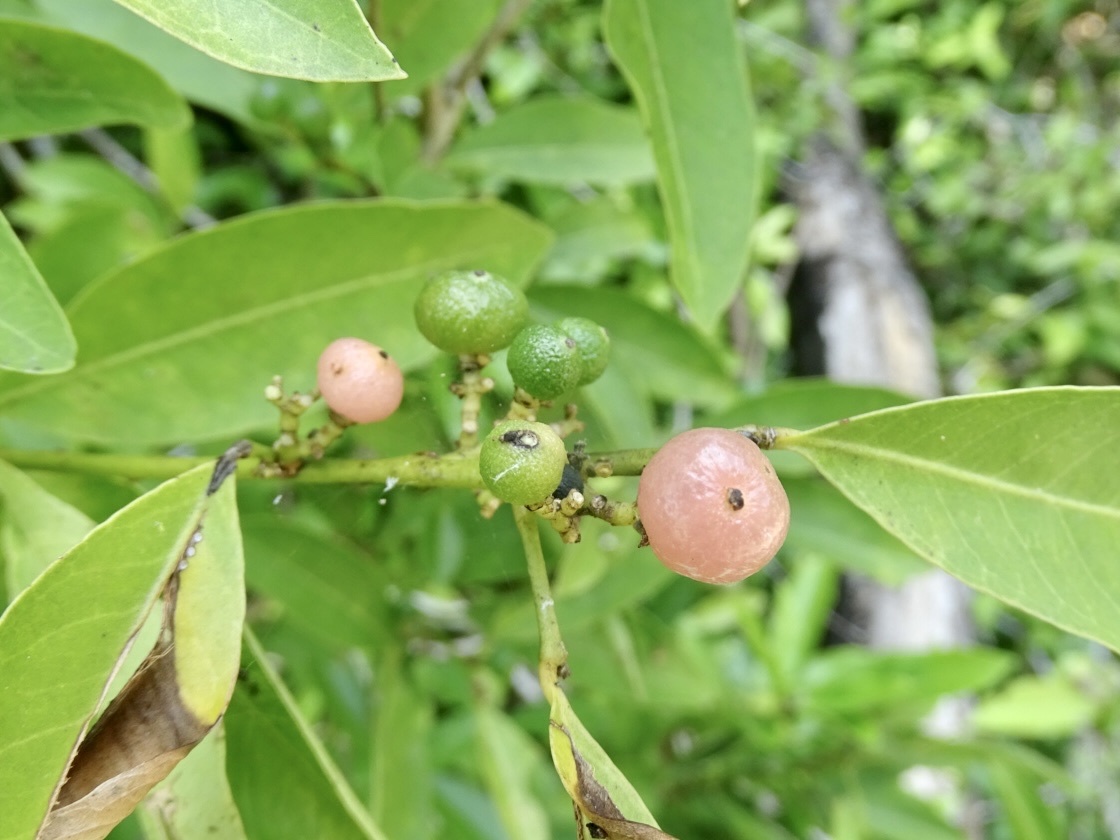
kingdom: Plantae
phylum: Tracheophyta
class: Magnoliopsida
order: Sapindales
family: Rutaceae
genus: Glycosmis
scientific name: Glycosmis parviflora
